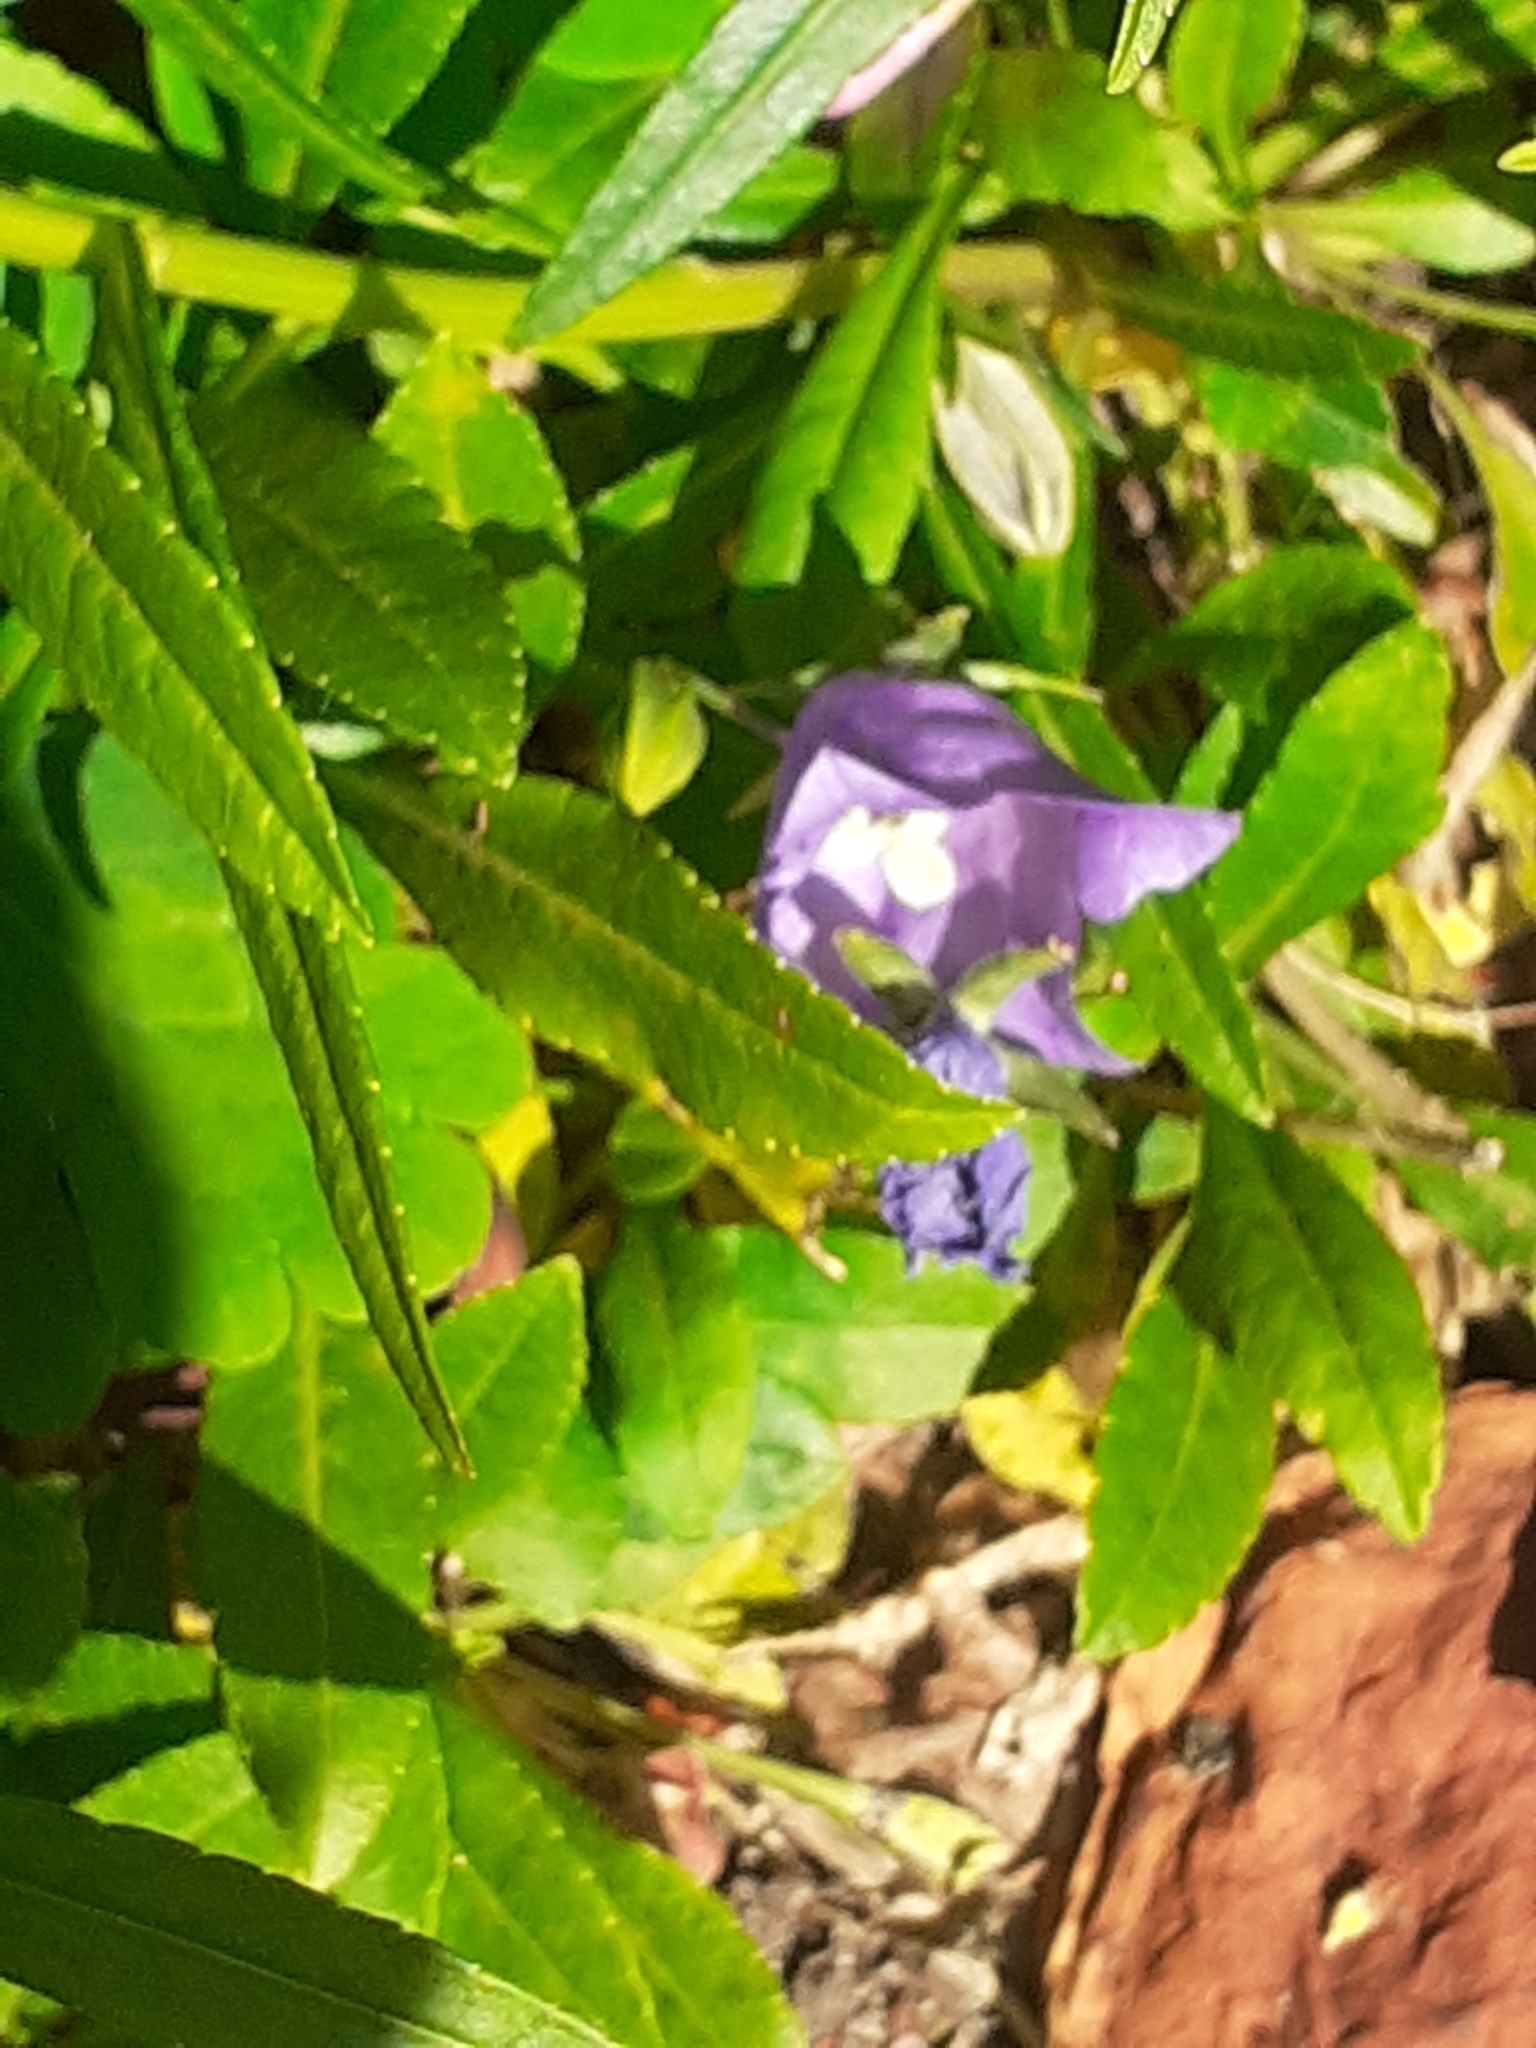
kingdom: Plantae
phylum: Tracheophyta
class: Magnoliopsida
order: Asterales
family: Campanulaceae
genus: Campanula
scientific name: Campanula persicifolia
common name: Peach-leaved bellflower
